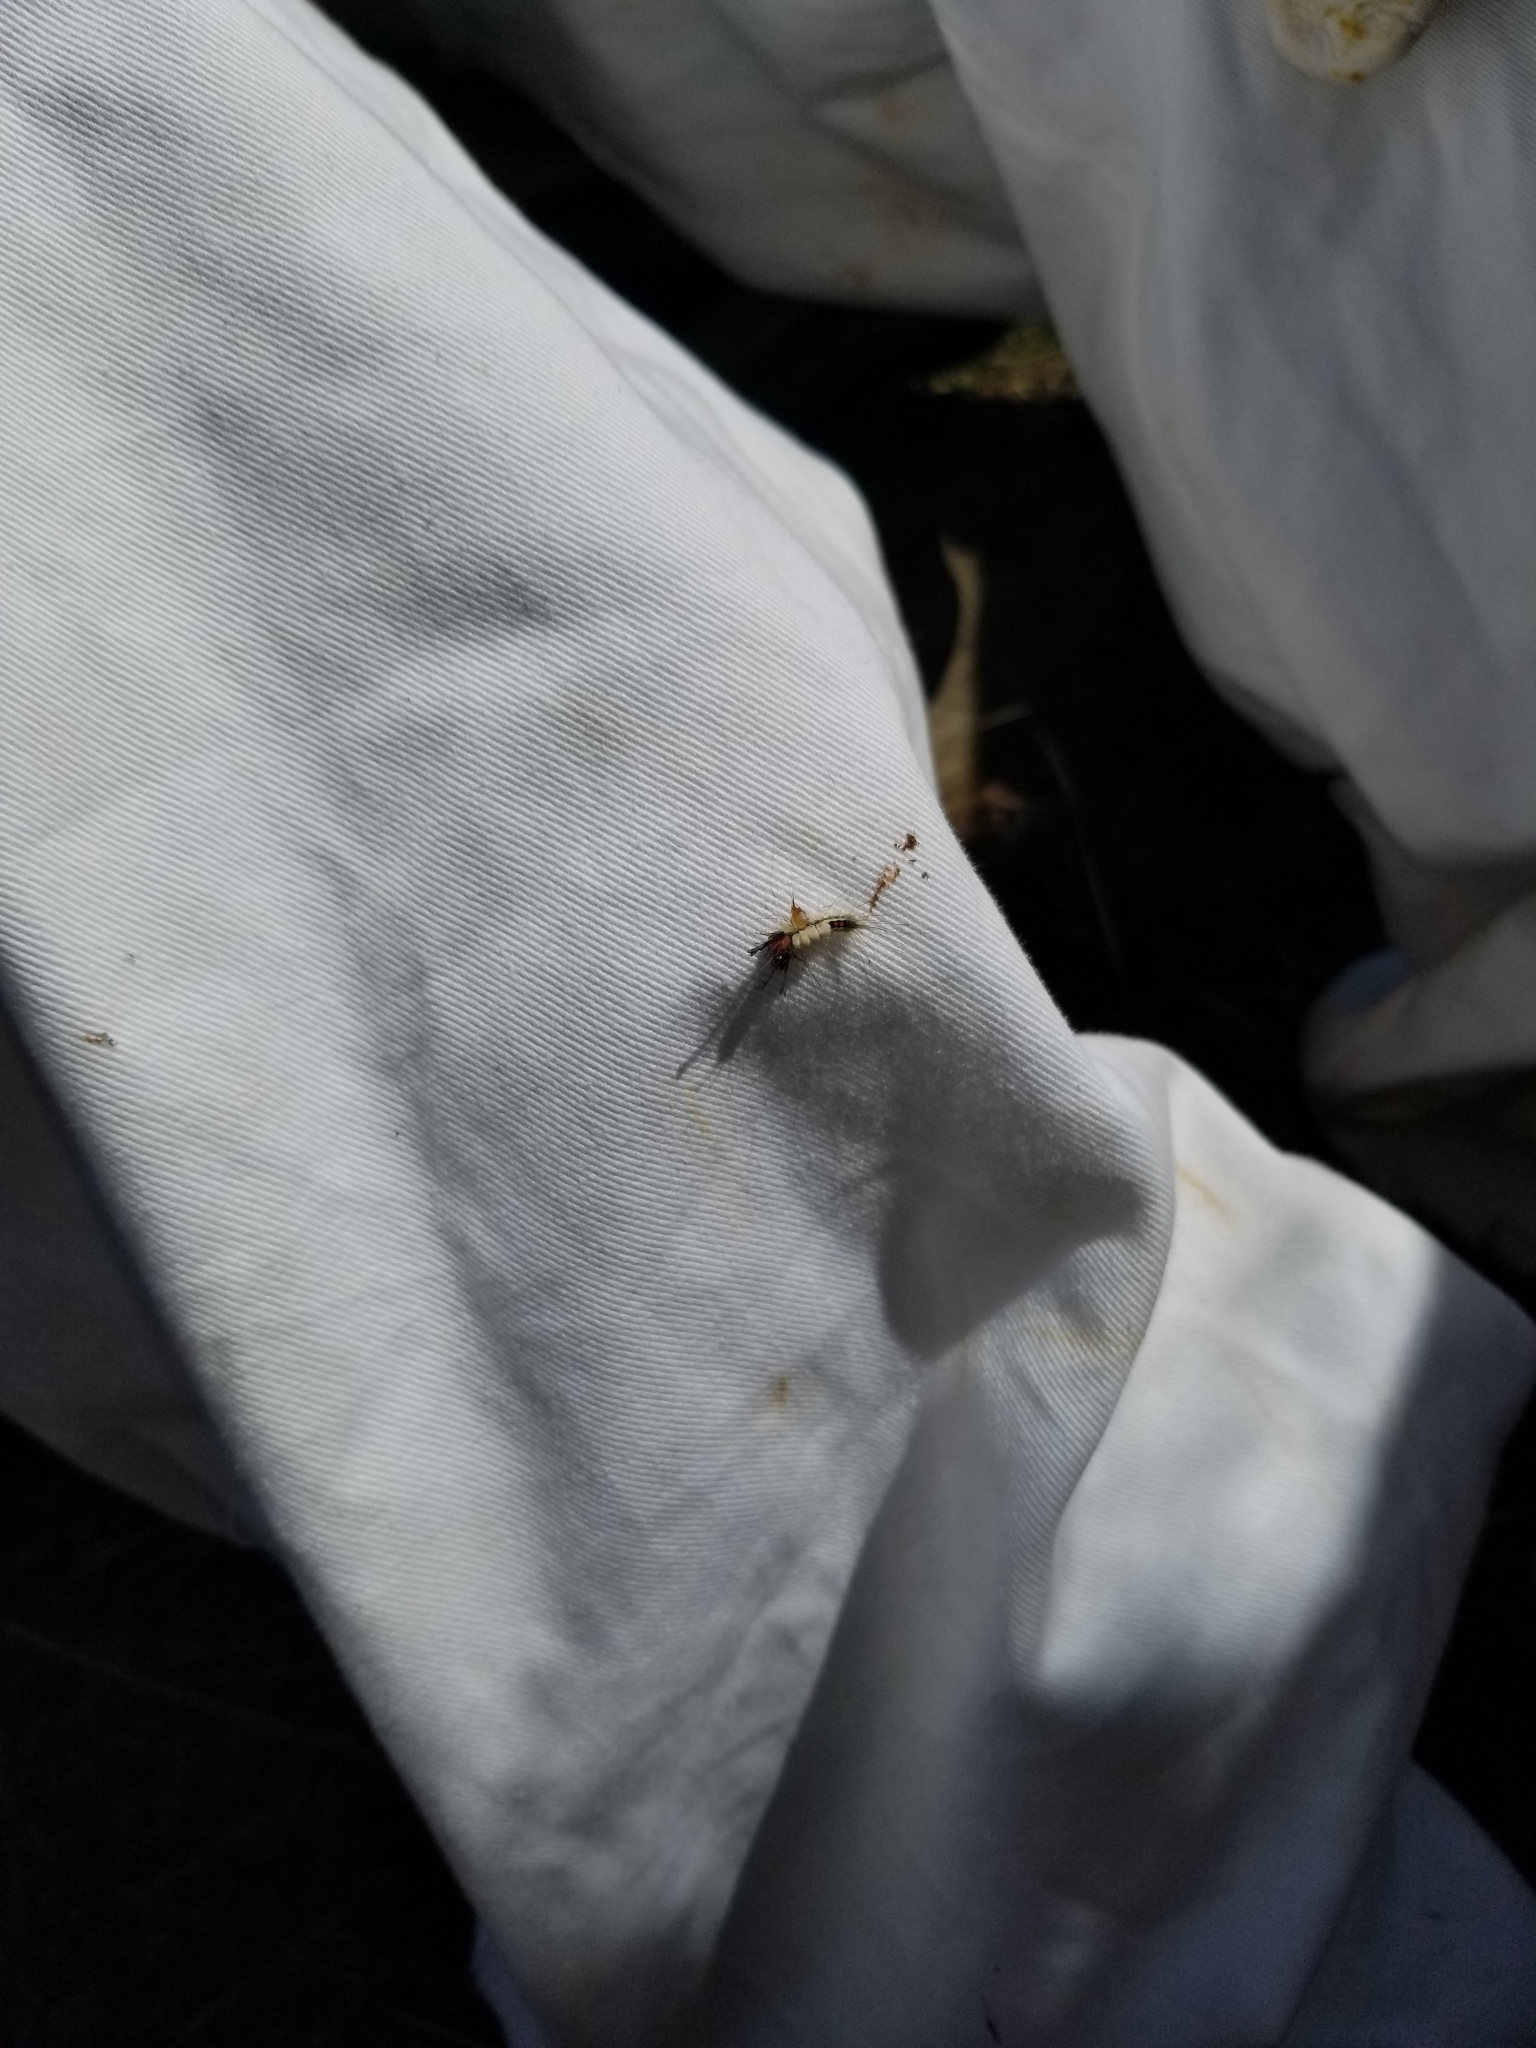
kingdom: Animalia
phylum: Arthropoda
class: Insecta
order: Lepidoptera
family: Erebidae
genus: Orgyia
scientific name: Orgyia leucostigma
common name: White-marked tussock moth
